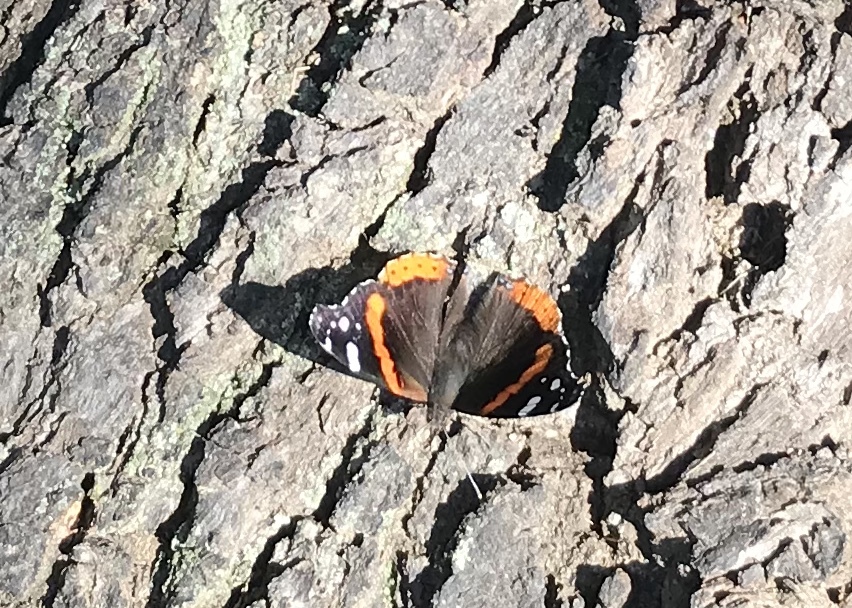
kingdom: Animalia
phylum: Arthropoda
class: Insecta
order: Lepidoptera
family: Nymphalidae
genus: Vanessa
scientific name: Vanessa atalanta
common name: Red admiral
